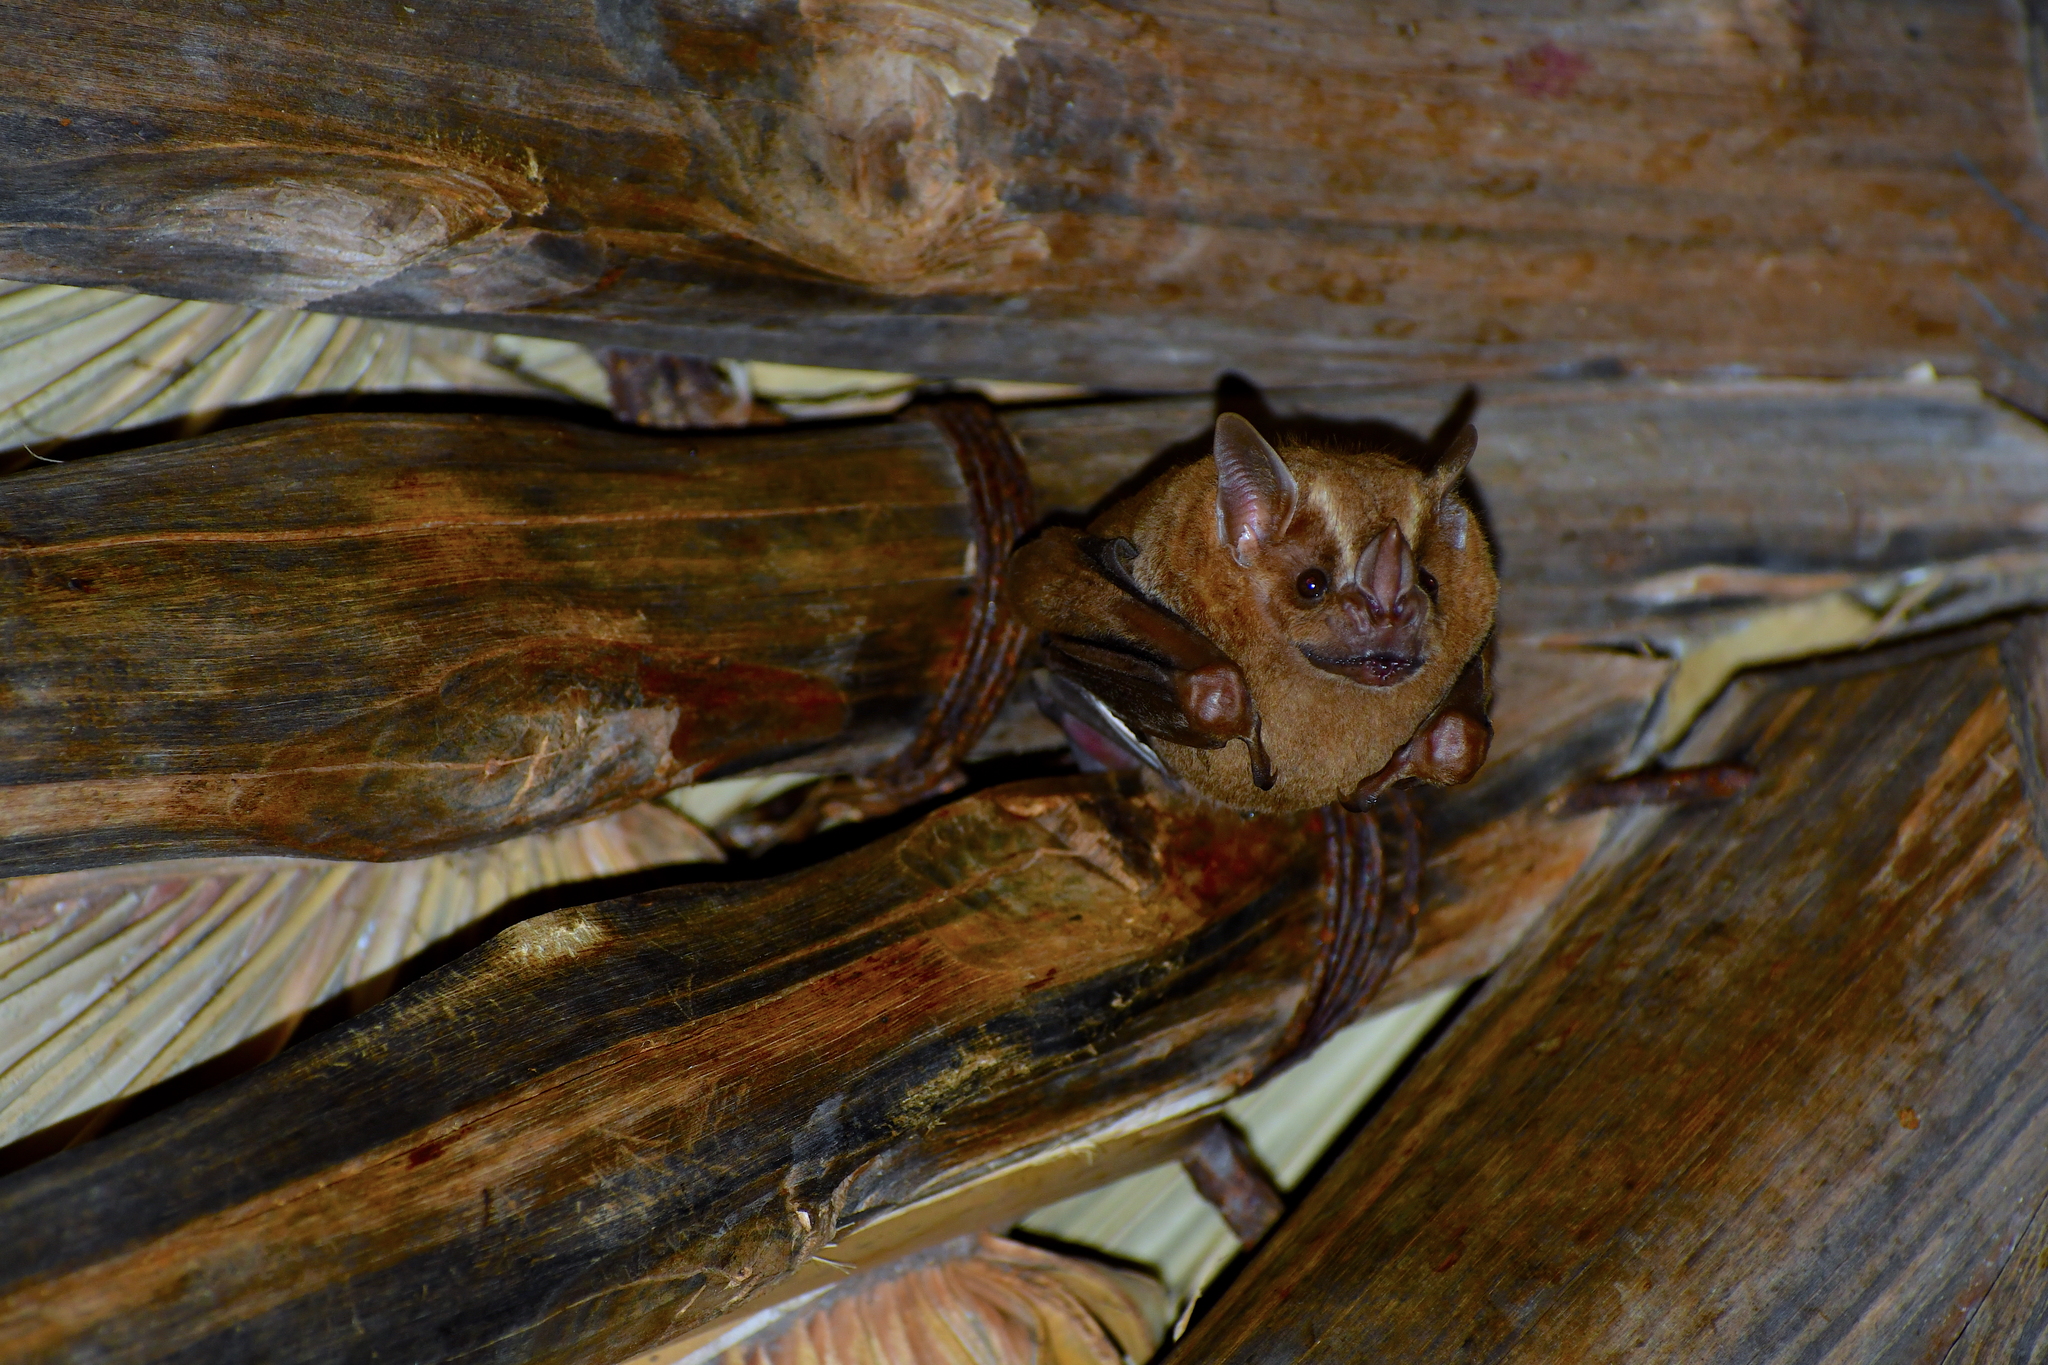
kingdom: Animalia
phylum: Chordata
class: Mammalia
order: Chiroptera
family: Phyllostomidae
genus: Artibeus
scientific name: Artibeus lituratus
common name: Great fruit-eating bat
